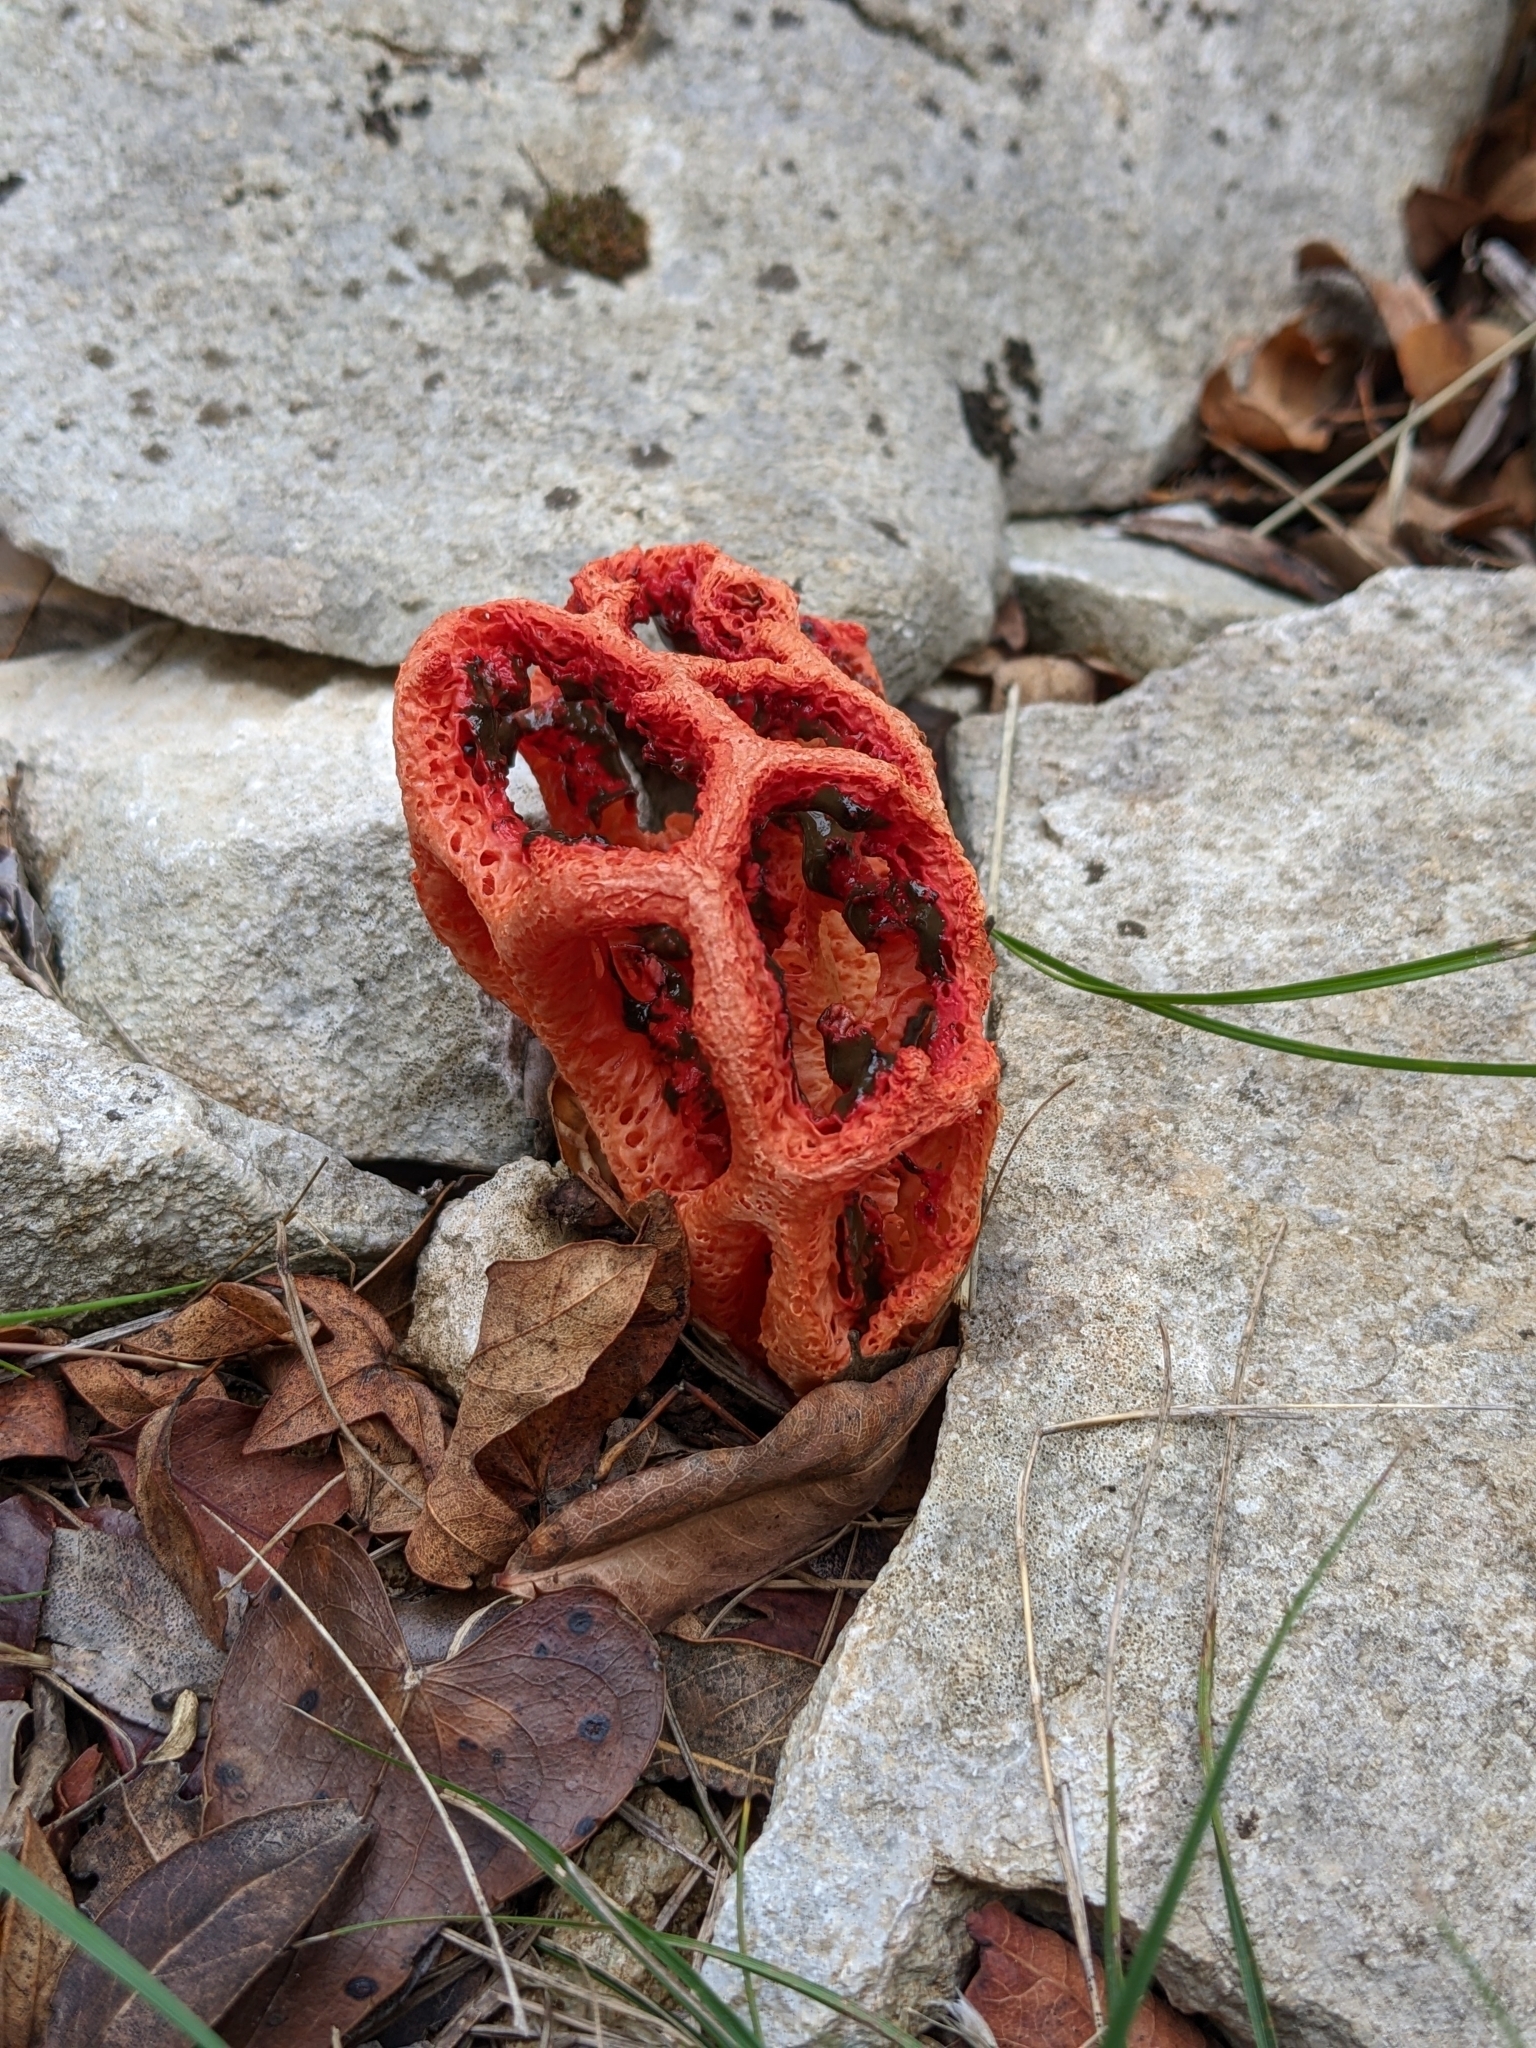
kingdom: Fungi
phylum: Basidiomycota
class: Agaricomycetes
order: Phallales
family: Phallaceae
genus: Clathrus
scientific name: Clathrus ruber
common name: Red cage
